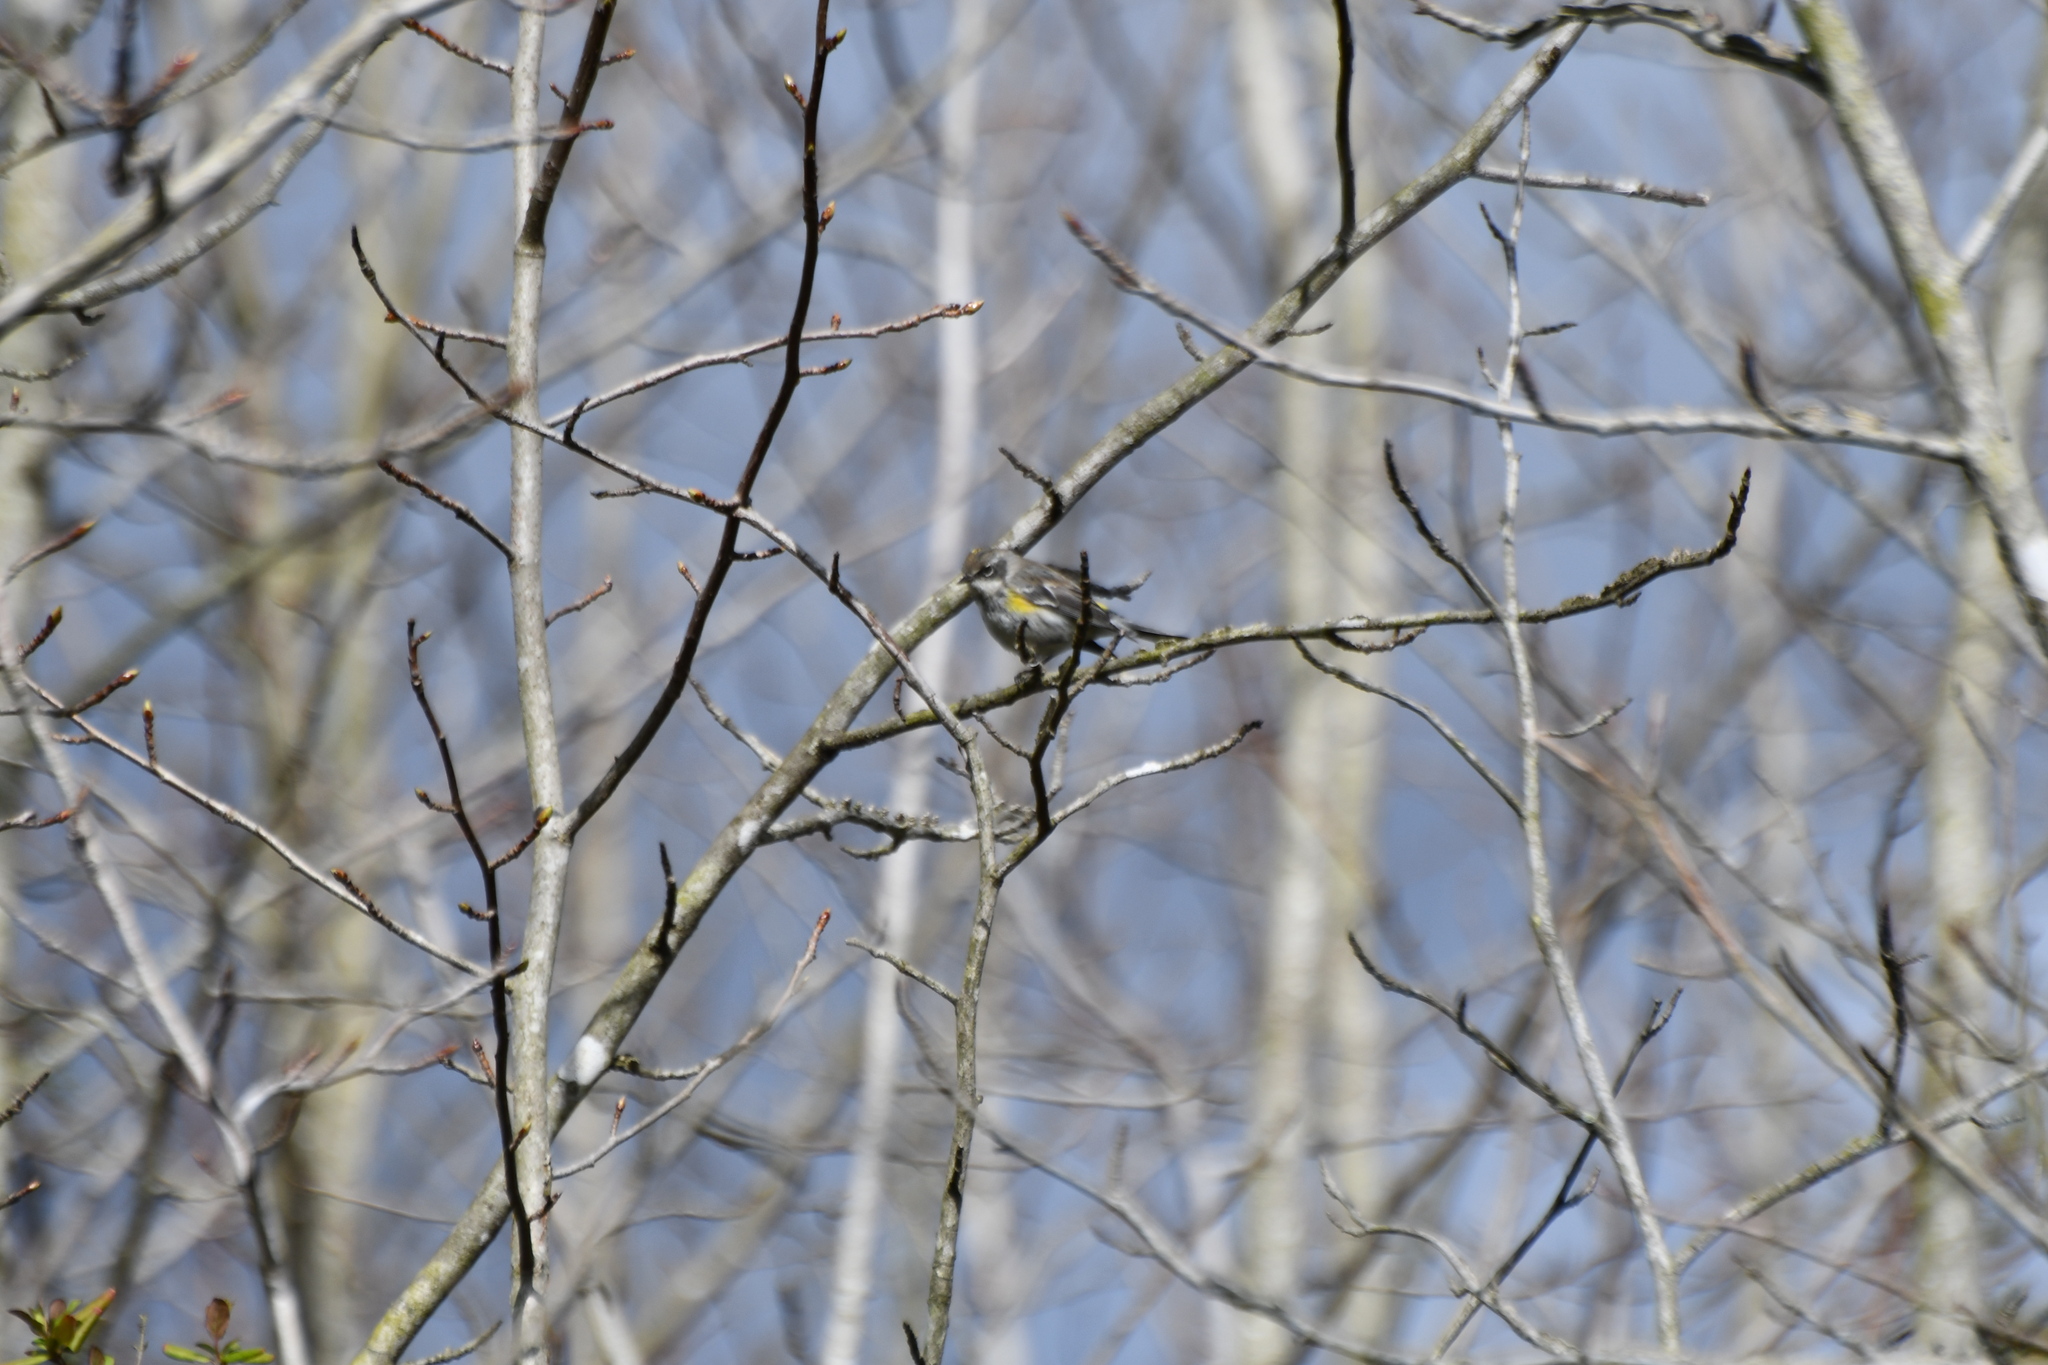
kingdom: Animalia
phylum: Chordata
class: Aves
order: Passeriformes
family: Parulidae
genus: Setophaga
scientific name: Setophaga coronata
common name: Myrtle warbler
